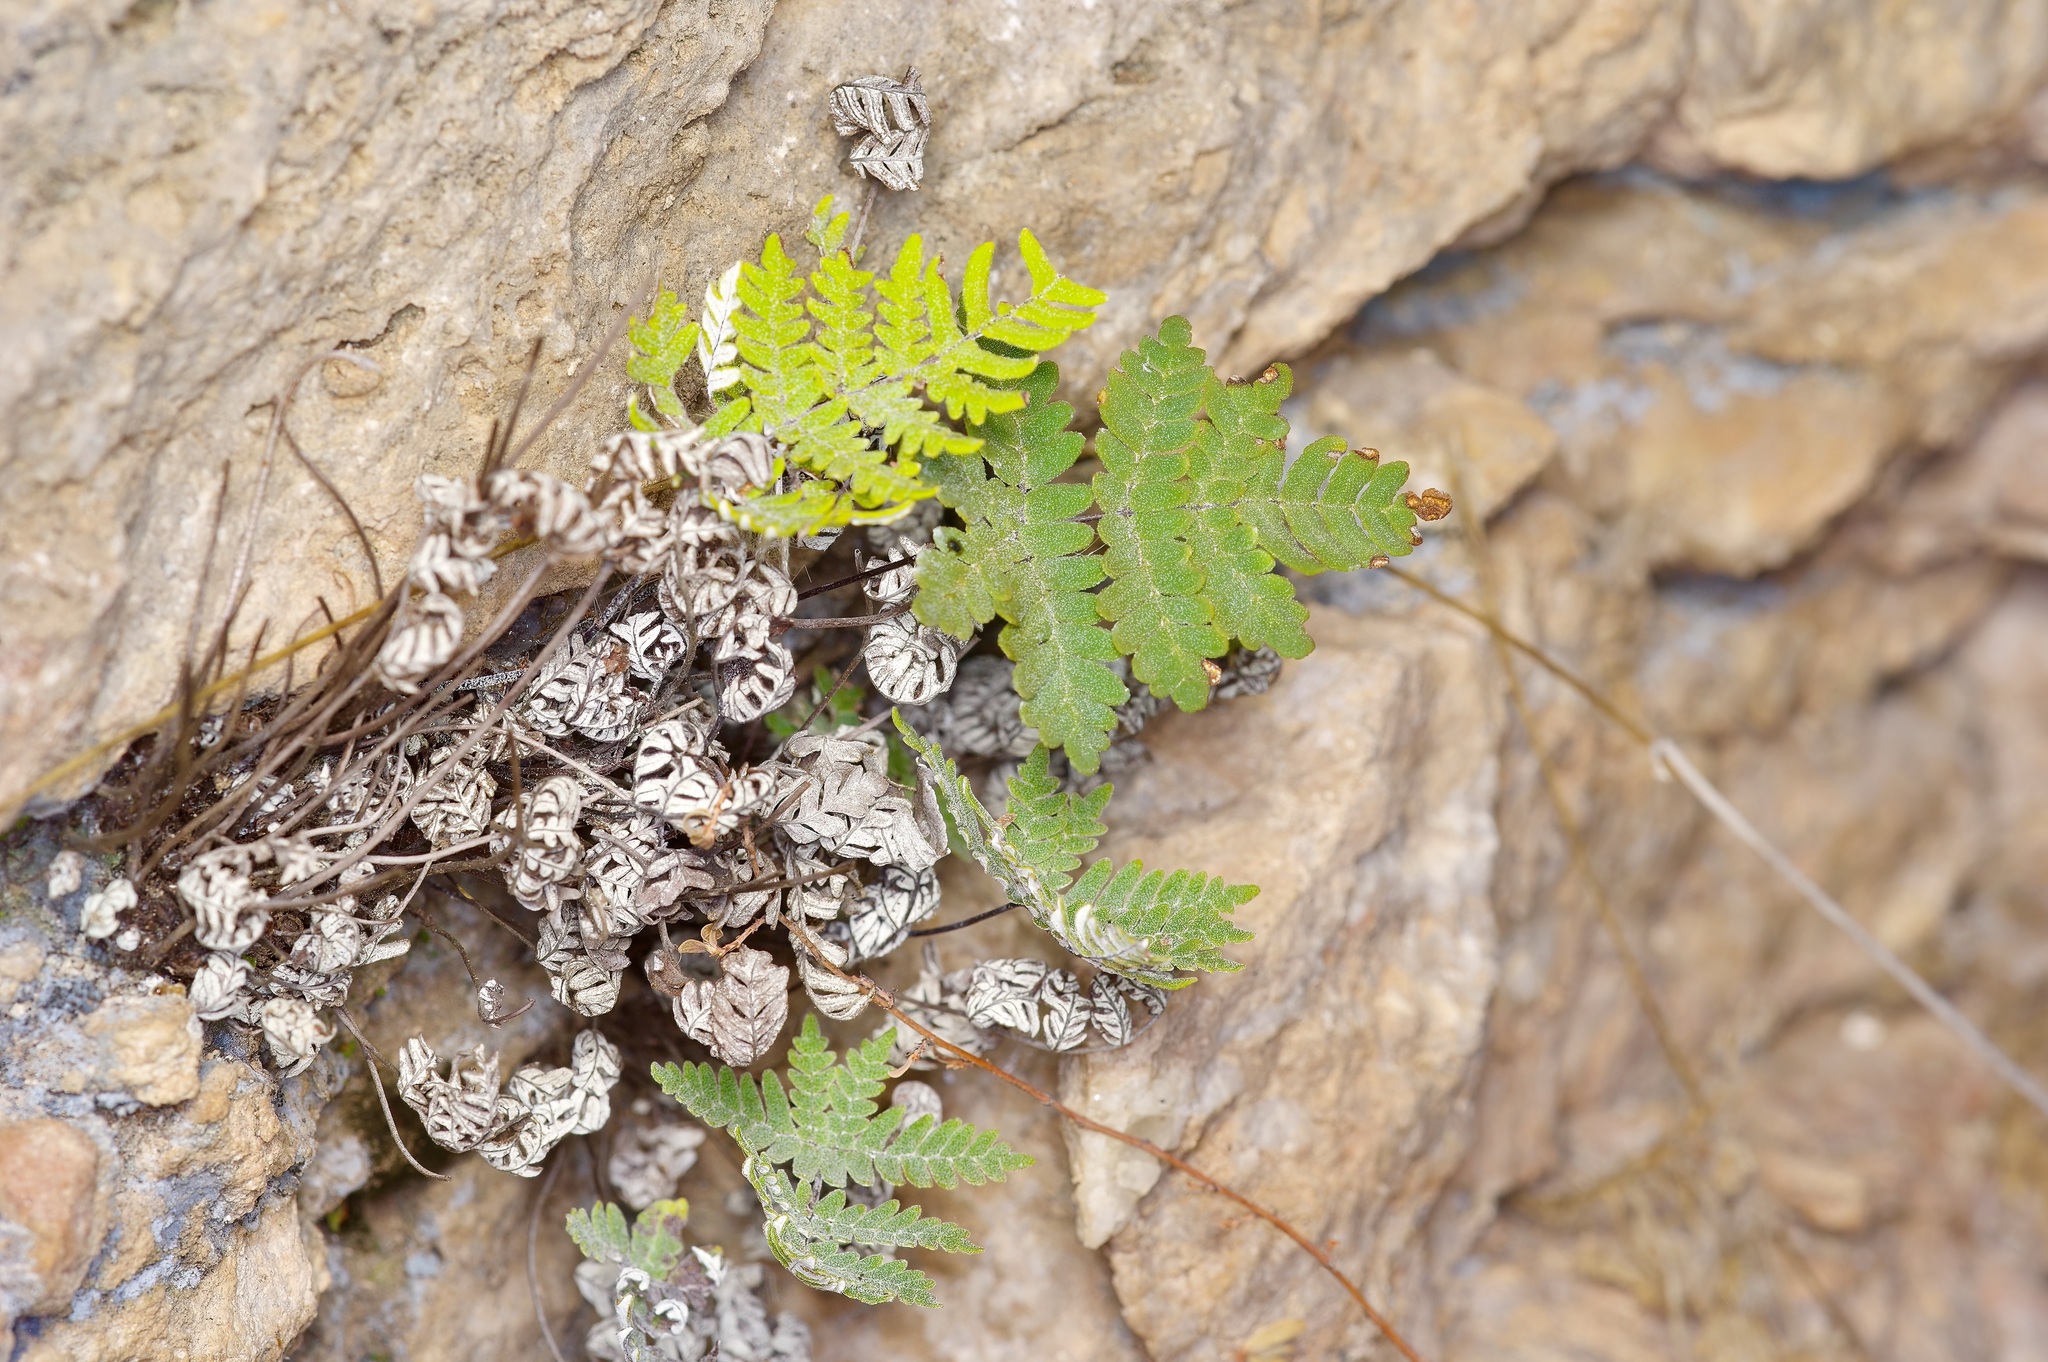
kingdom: Plantae
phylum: Tracheophyta
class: Polypodiopsida
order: Polypodiales
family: Pteridaceae
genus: Notholaena
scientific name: Notholaena candida
